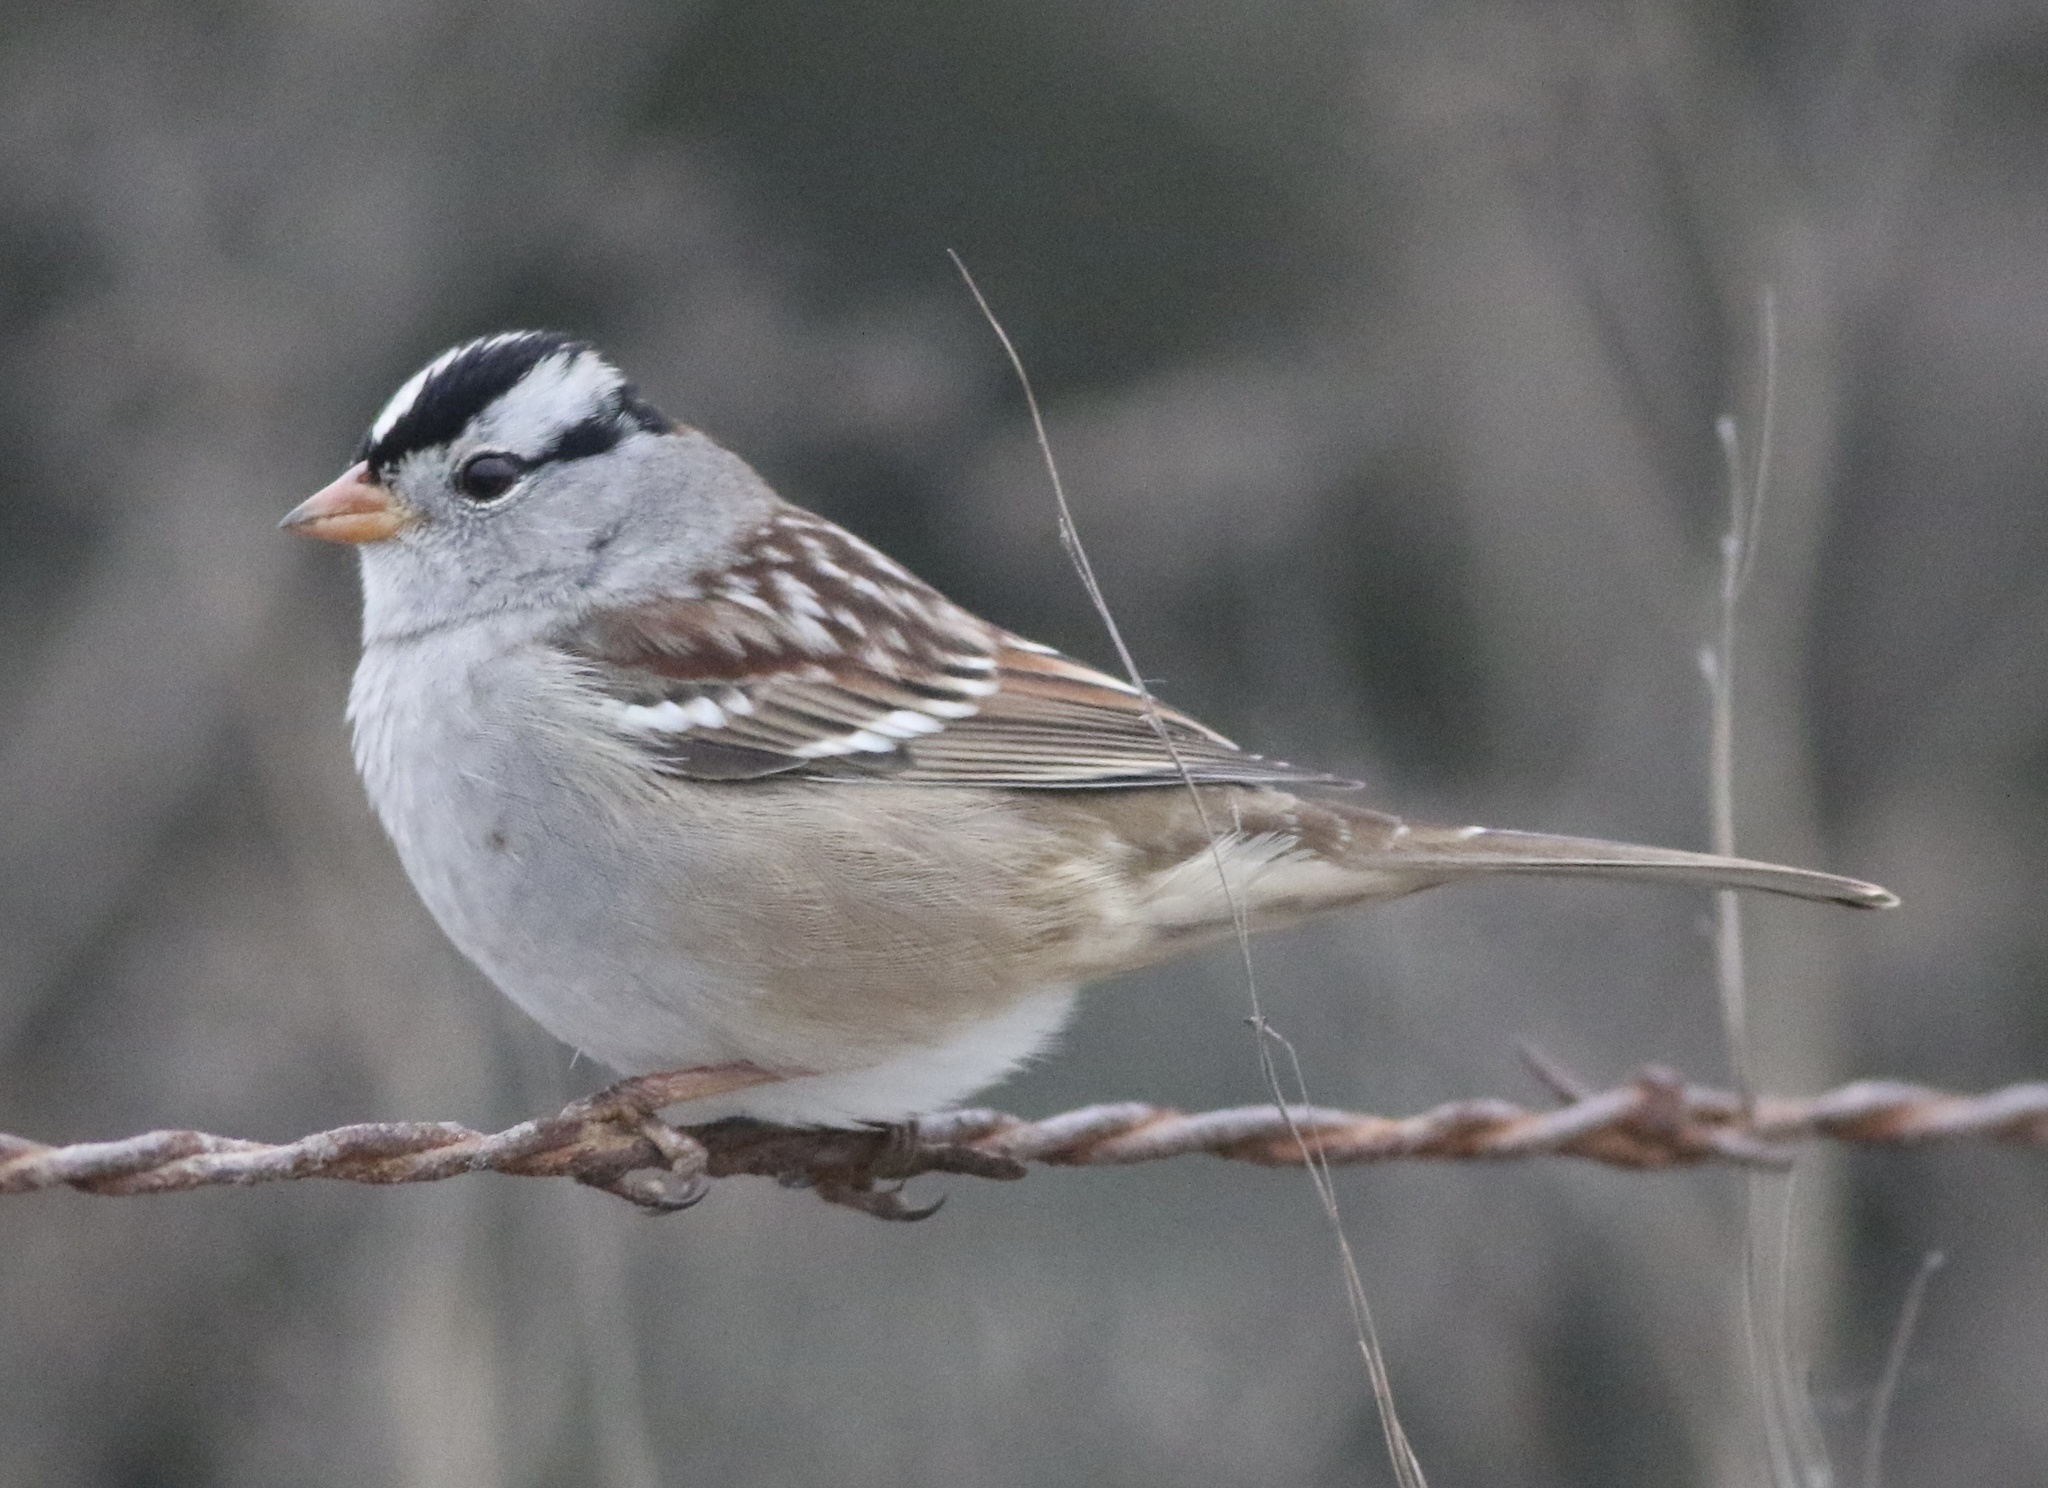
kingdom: Animalia
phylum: Chordata
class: Aves
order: Passeriformes
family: Passerellidae
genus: Zonotrichia
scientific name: Zonotrichia leucophrys
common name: White-crowned sparrow
